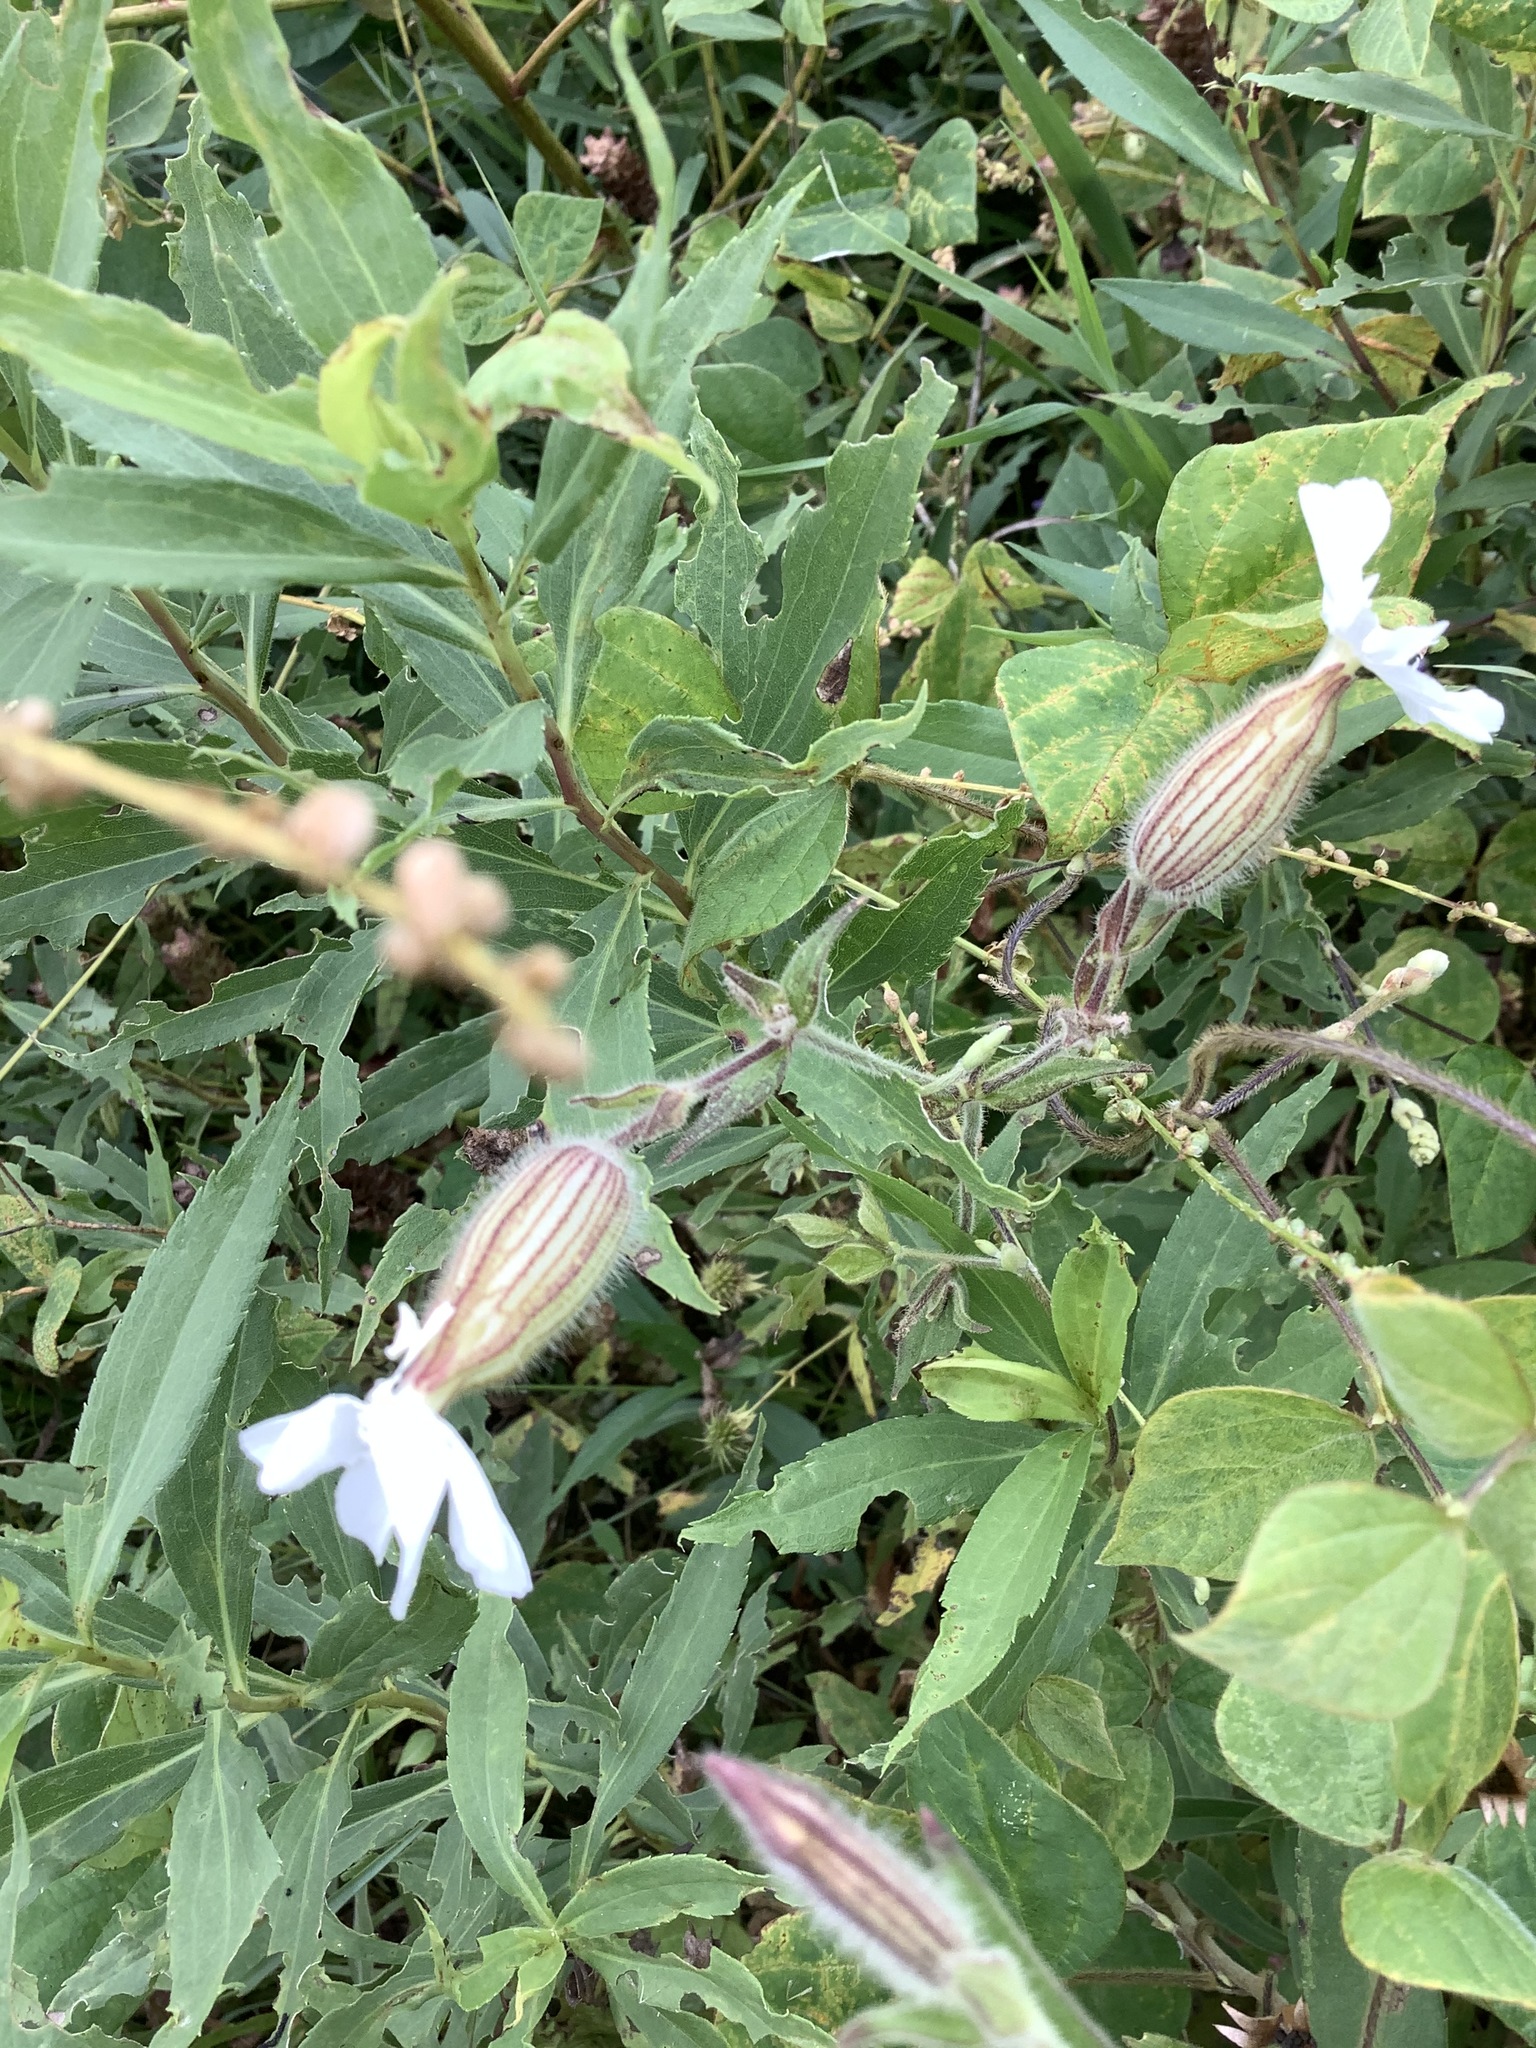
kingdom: Plantae
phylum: Tracheophyta
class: Magnoliopsida
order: Caryophyllales
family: Caryophyllaceae
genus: Silene
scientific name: Silene latifolia
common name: White campion
